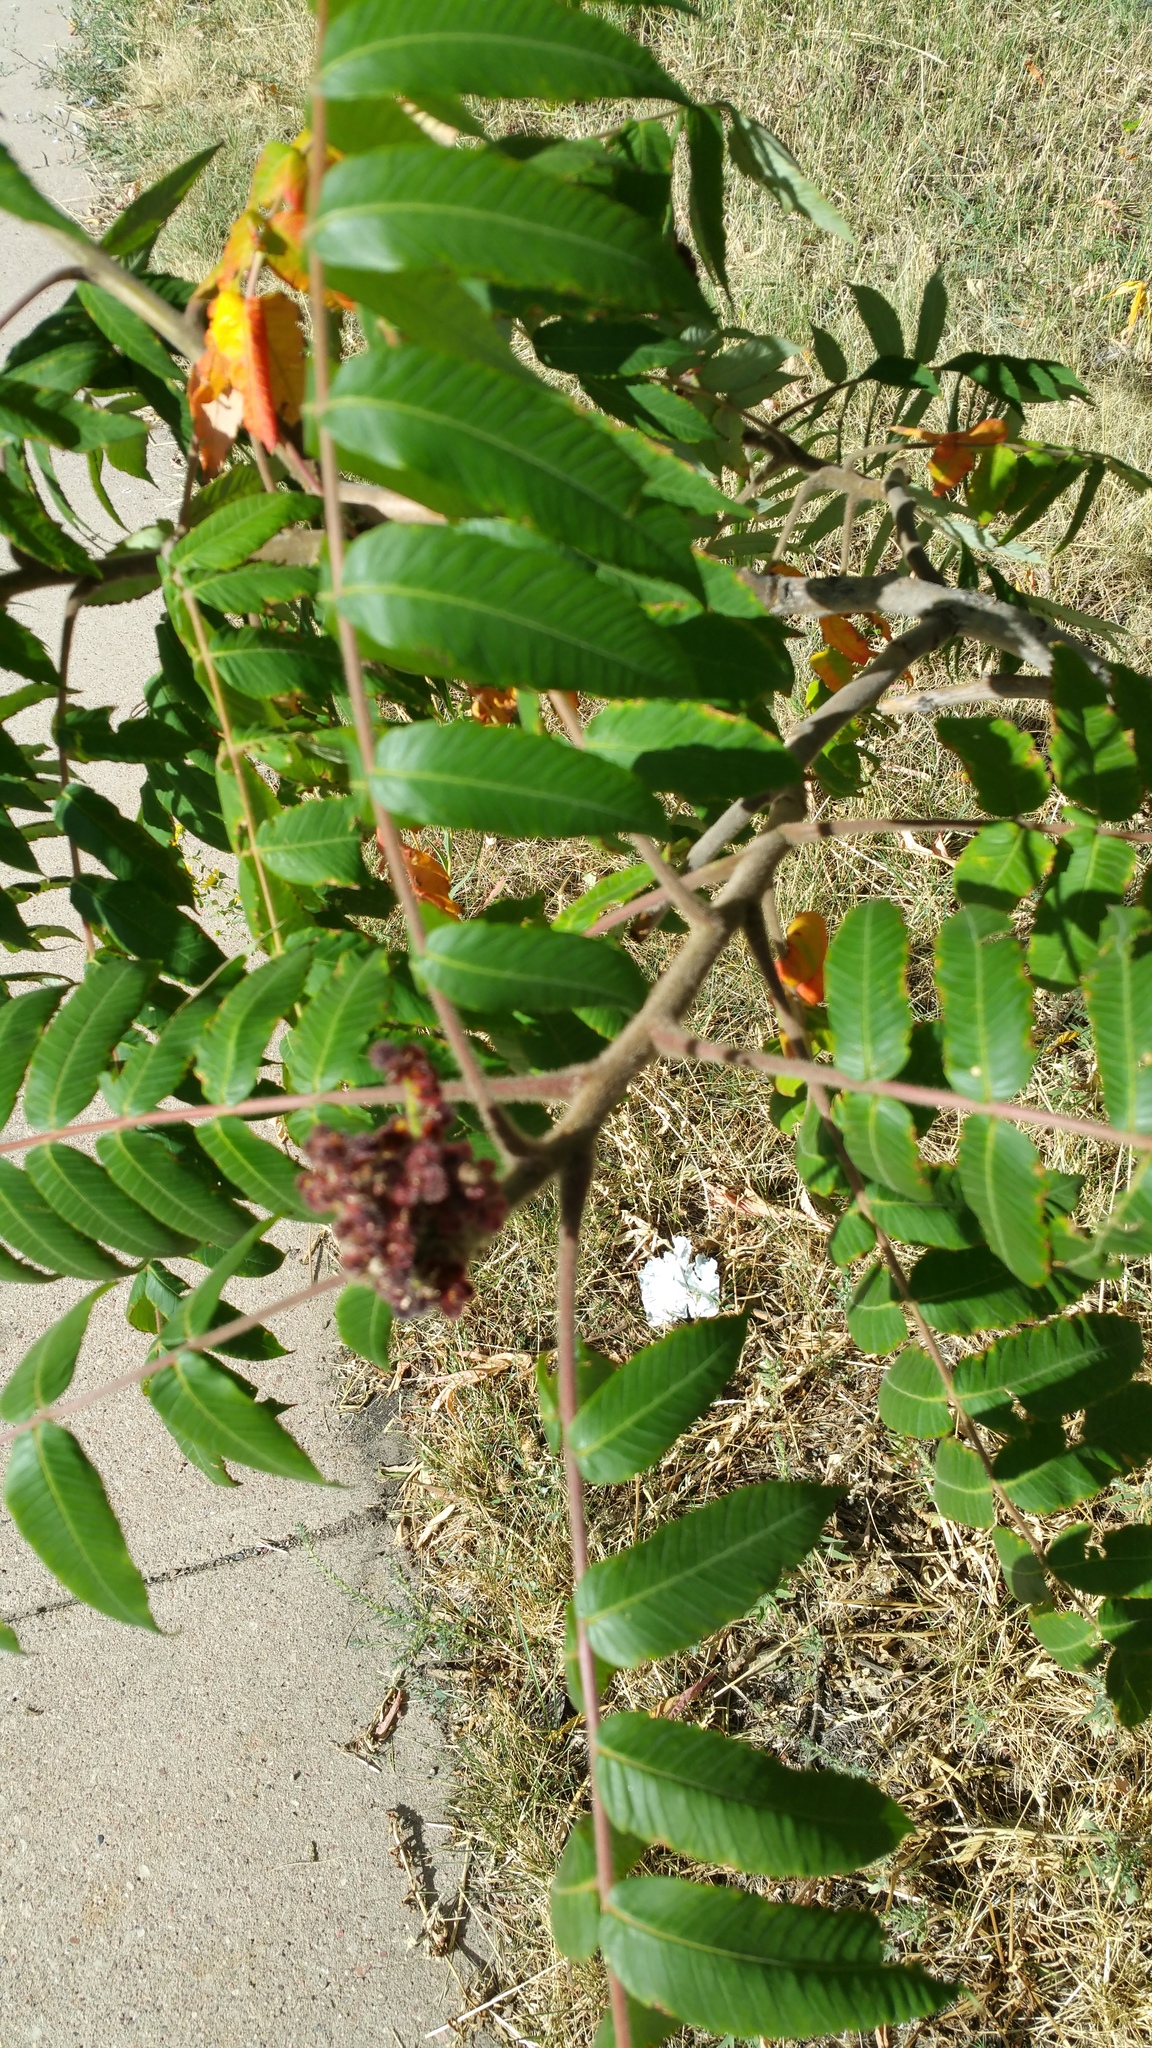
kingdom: Plantae
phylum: Tracheophyta
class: Magnoliopsida
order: Sapindales
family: Anacardiaceae
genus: Rhus
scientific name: Rhus typhina
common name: Staghorn sumac
